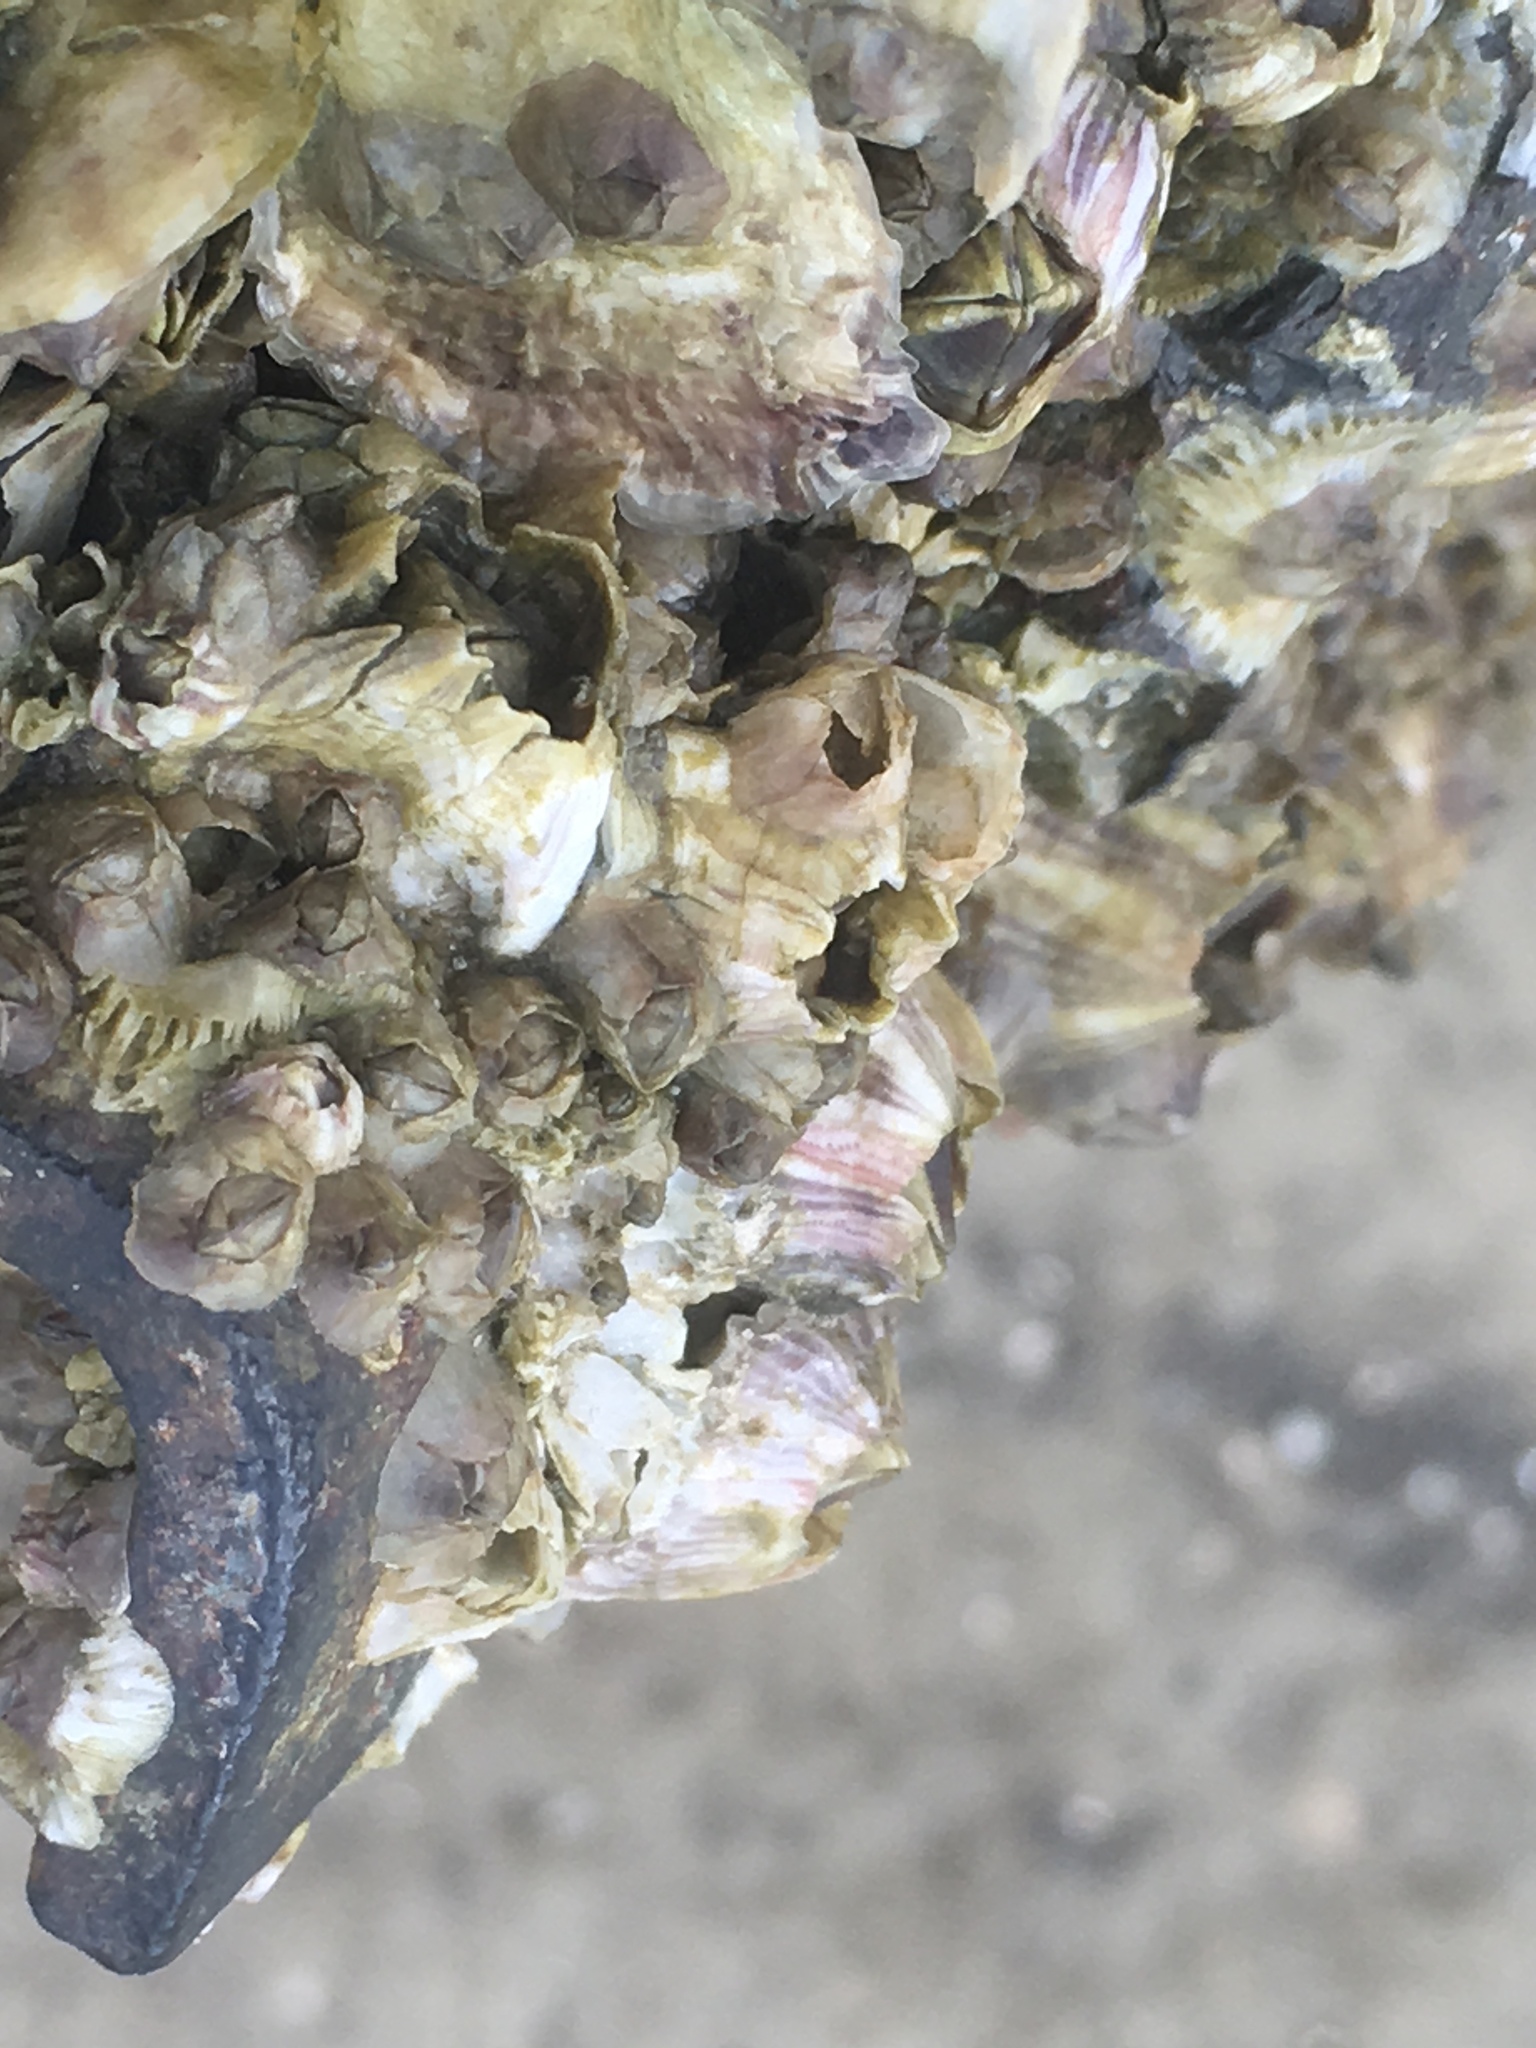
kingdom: Animalia
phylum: Arthropoda
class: Maxillopoda
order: Sessilia
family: Chthamalidae
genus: Chthamalus
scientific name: Chthamalus fragilis
